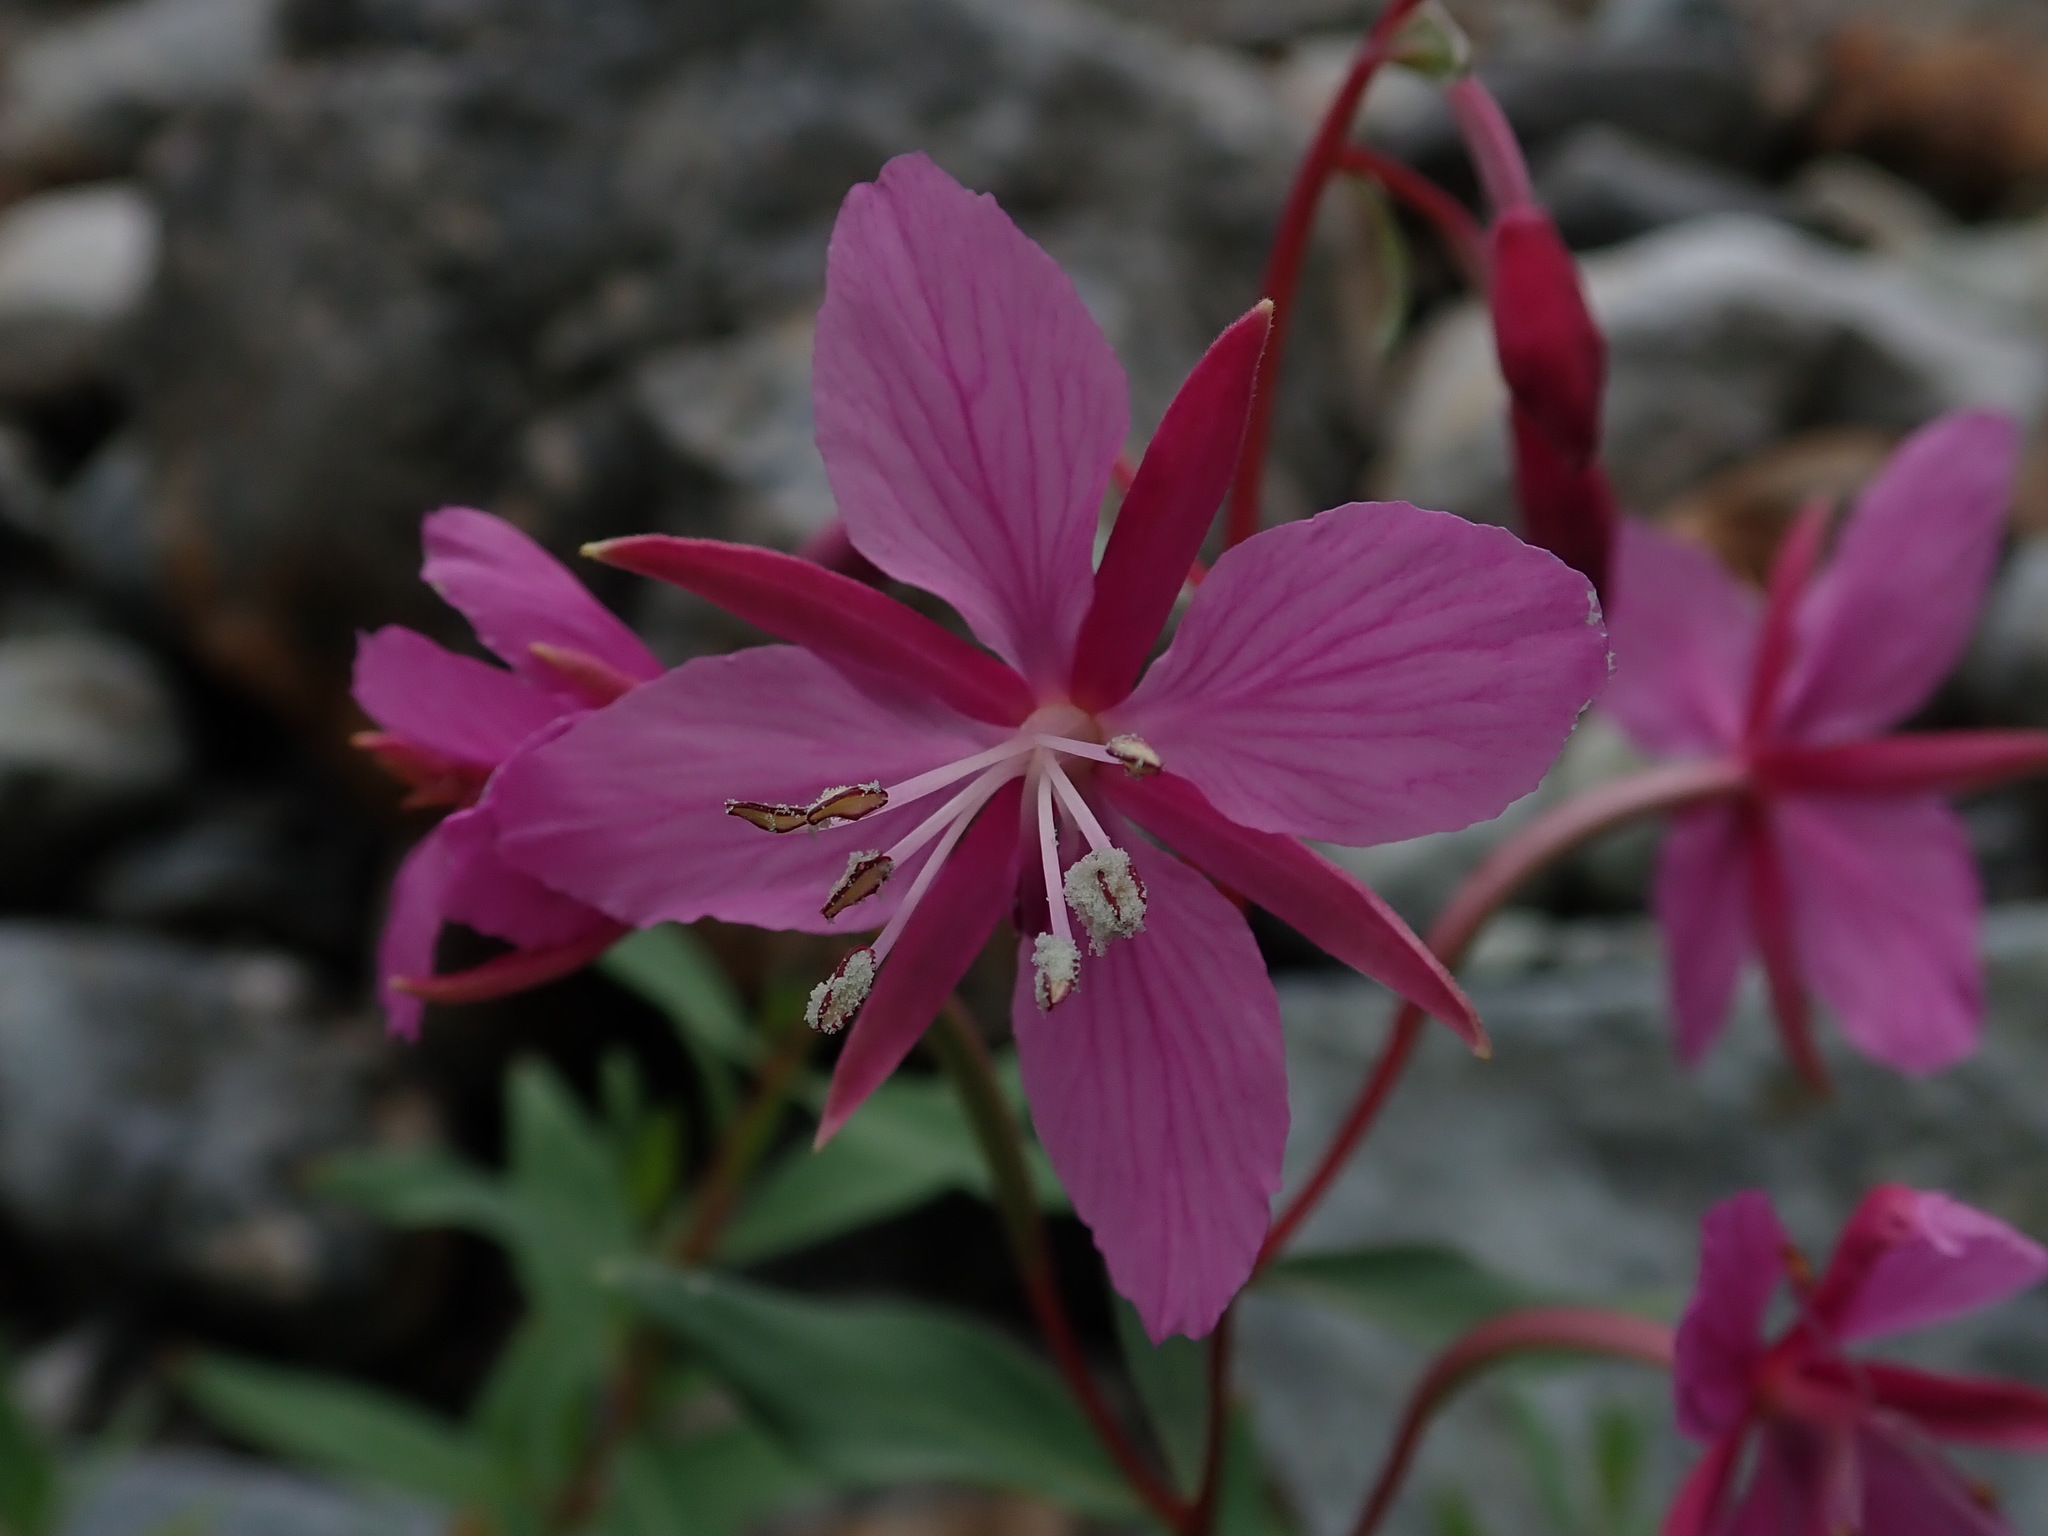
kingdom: Plantae
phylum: Tracheophyta
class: Magnoliopsida
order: Myrtales
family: Onagraceae
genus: Chamaenerion
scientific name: Chamaenerion latifolium
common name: Dwarf fireweed
